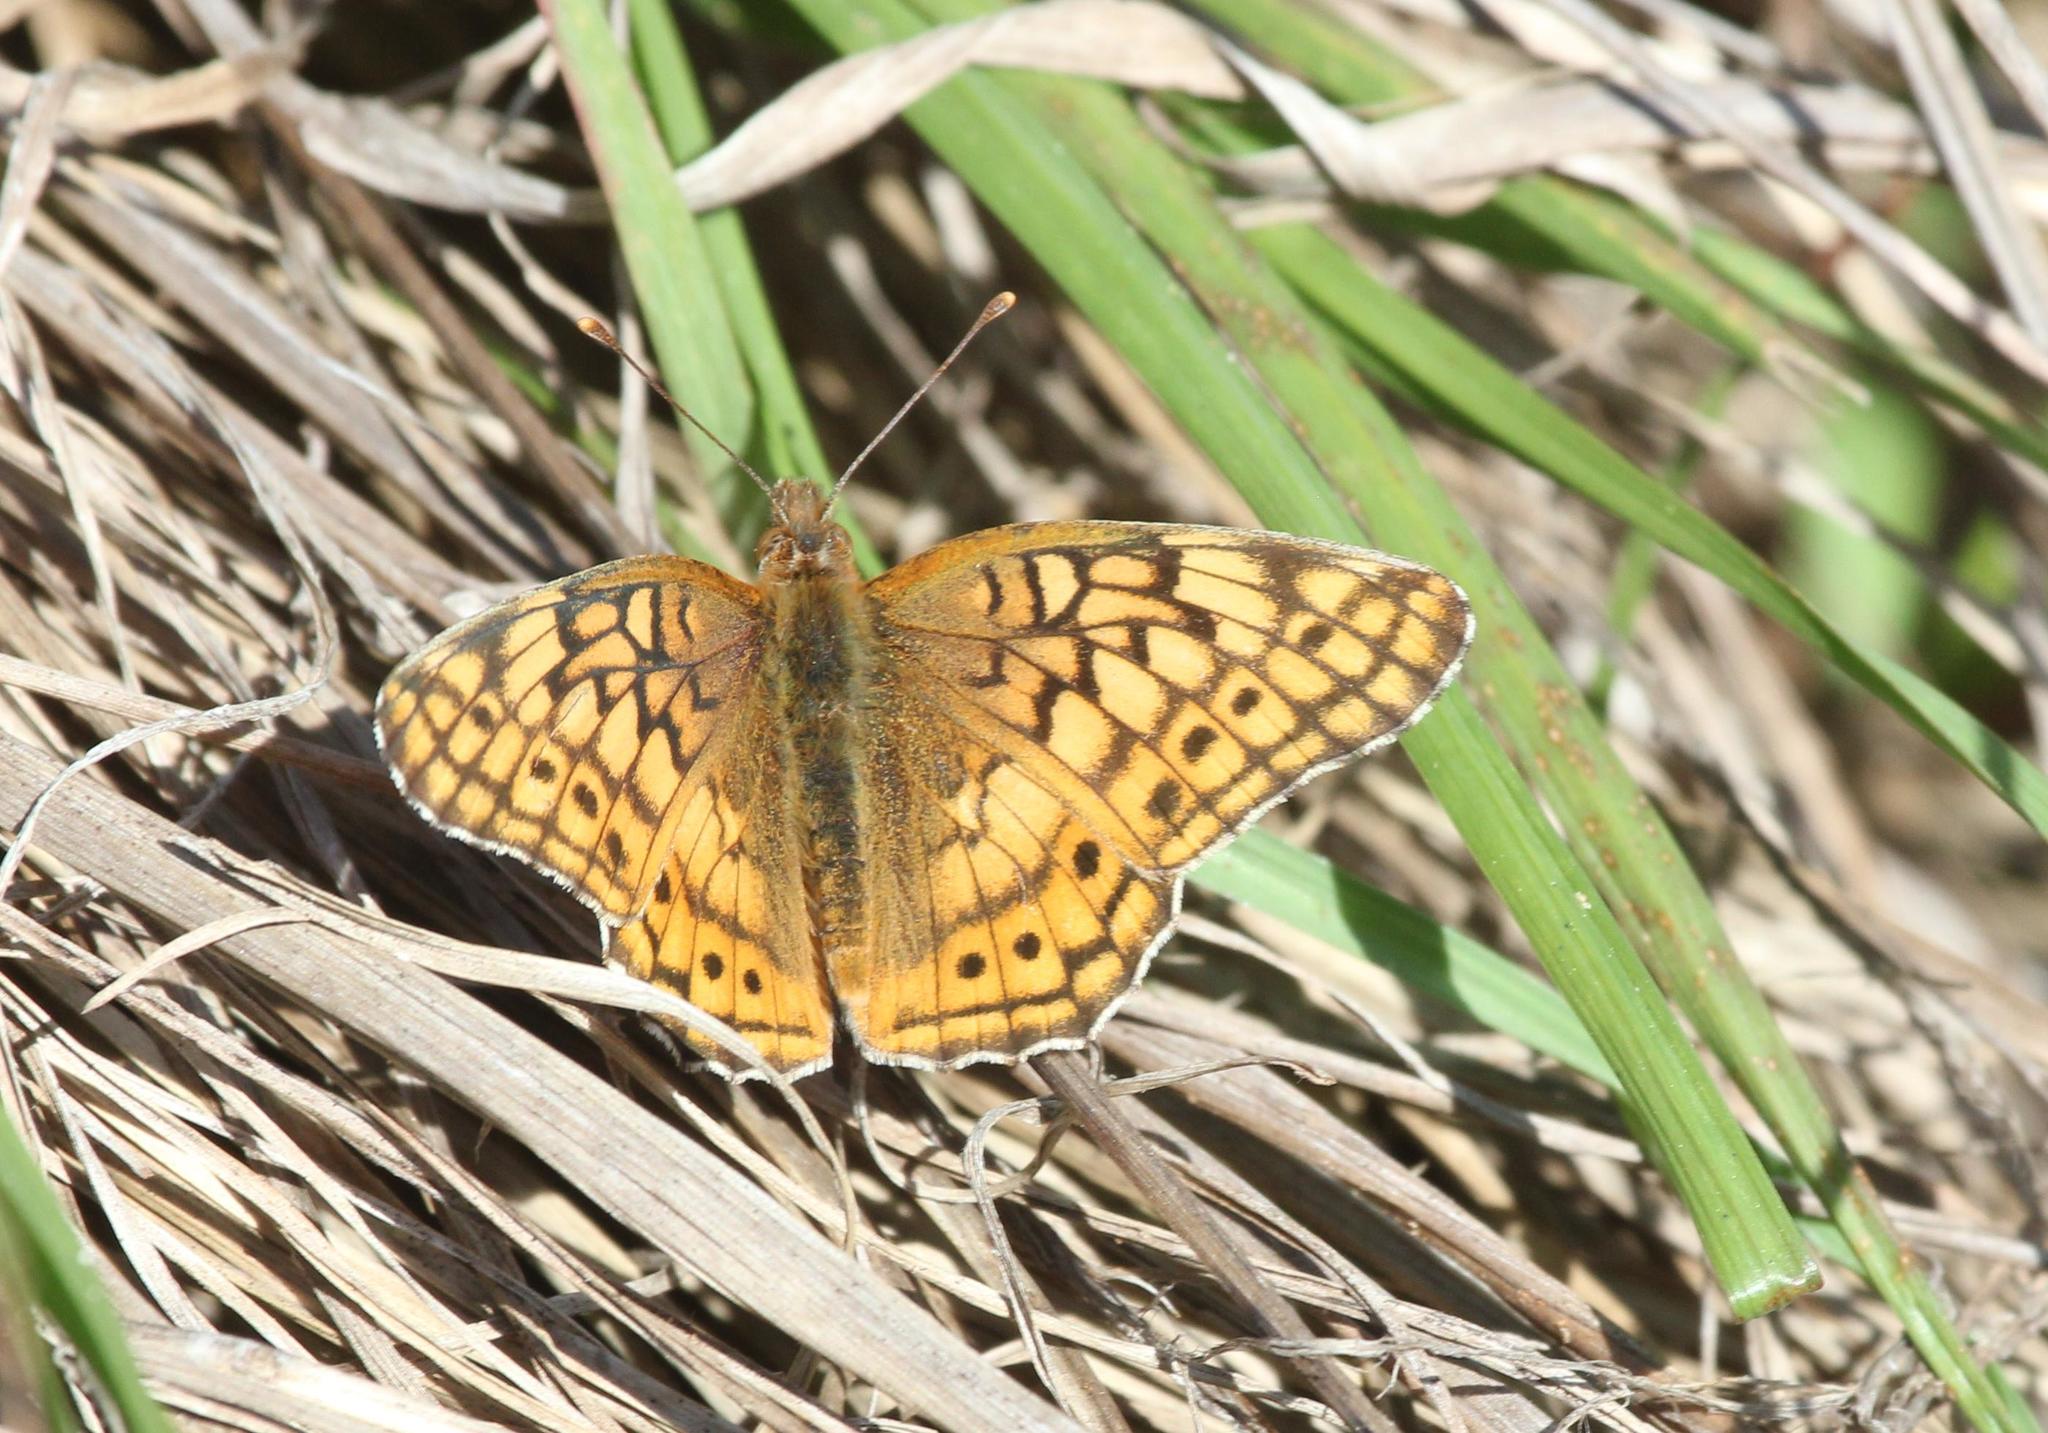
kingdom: Animalia
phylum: Arthropoda
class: Insecta
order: Lepidoptera
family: Nymphalidae
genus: Euptoieta
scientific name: Euptoieta claudia
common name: Variegated fritillary
